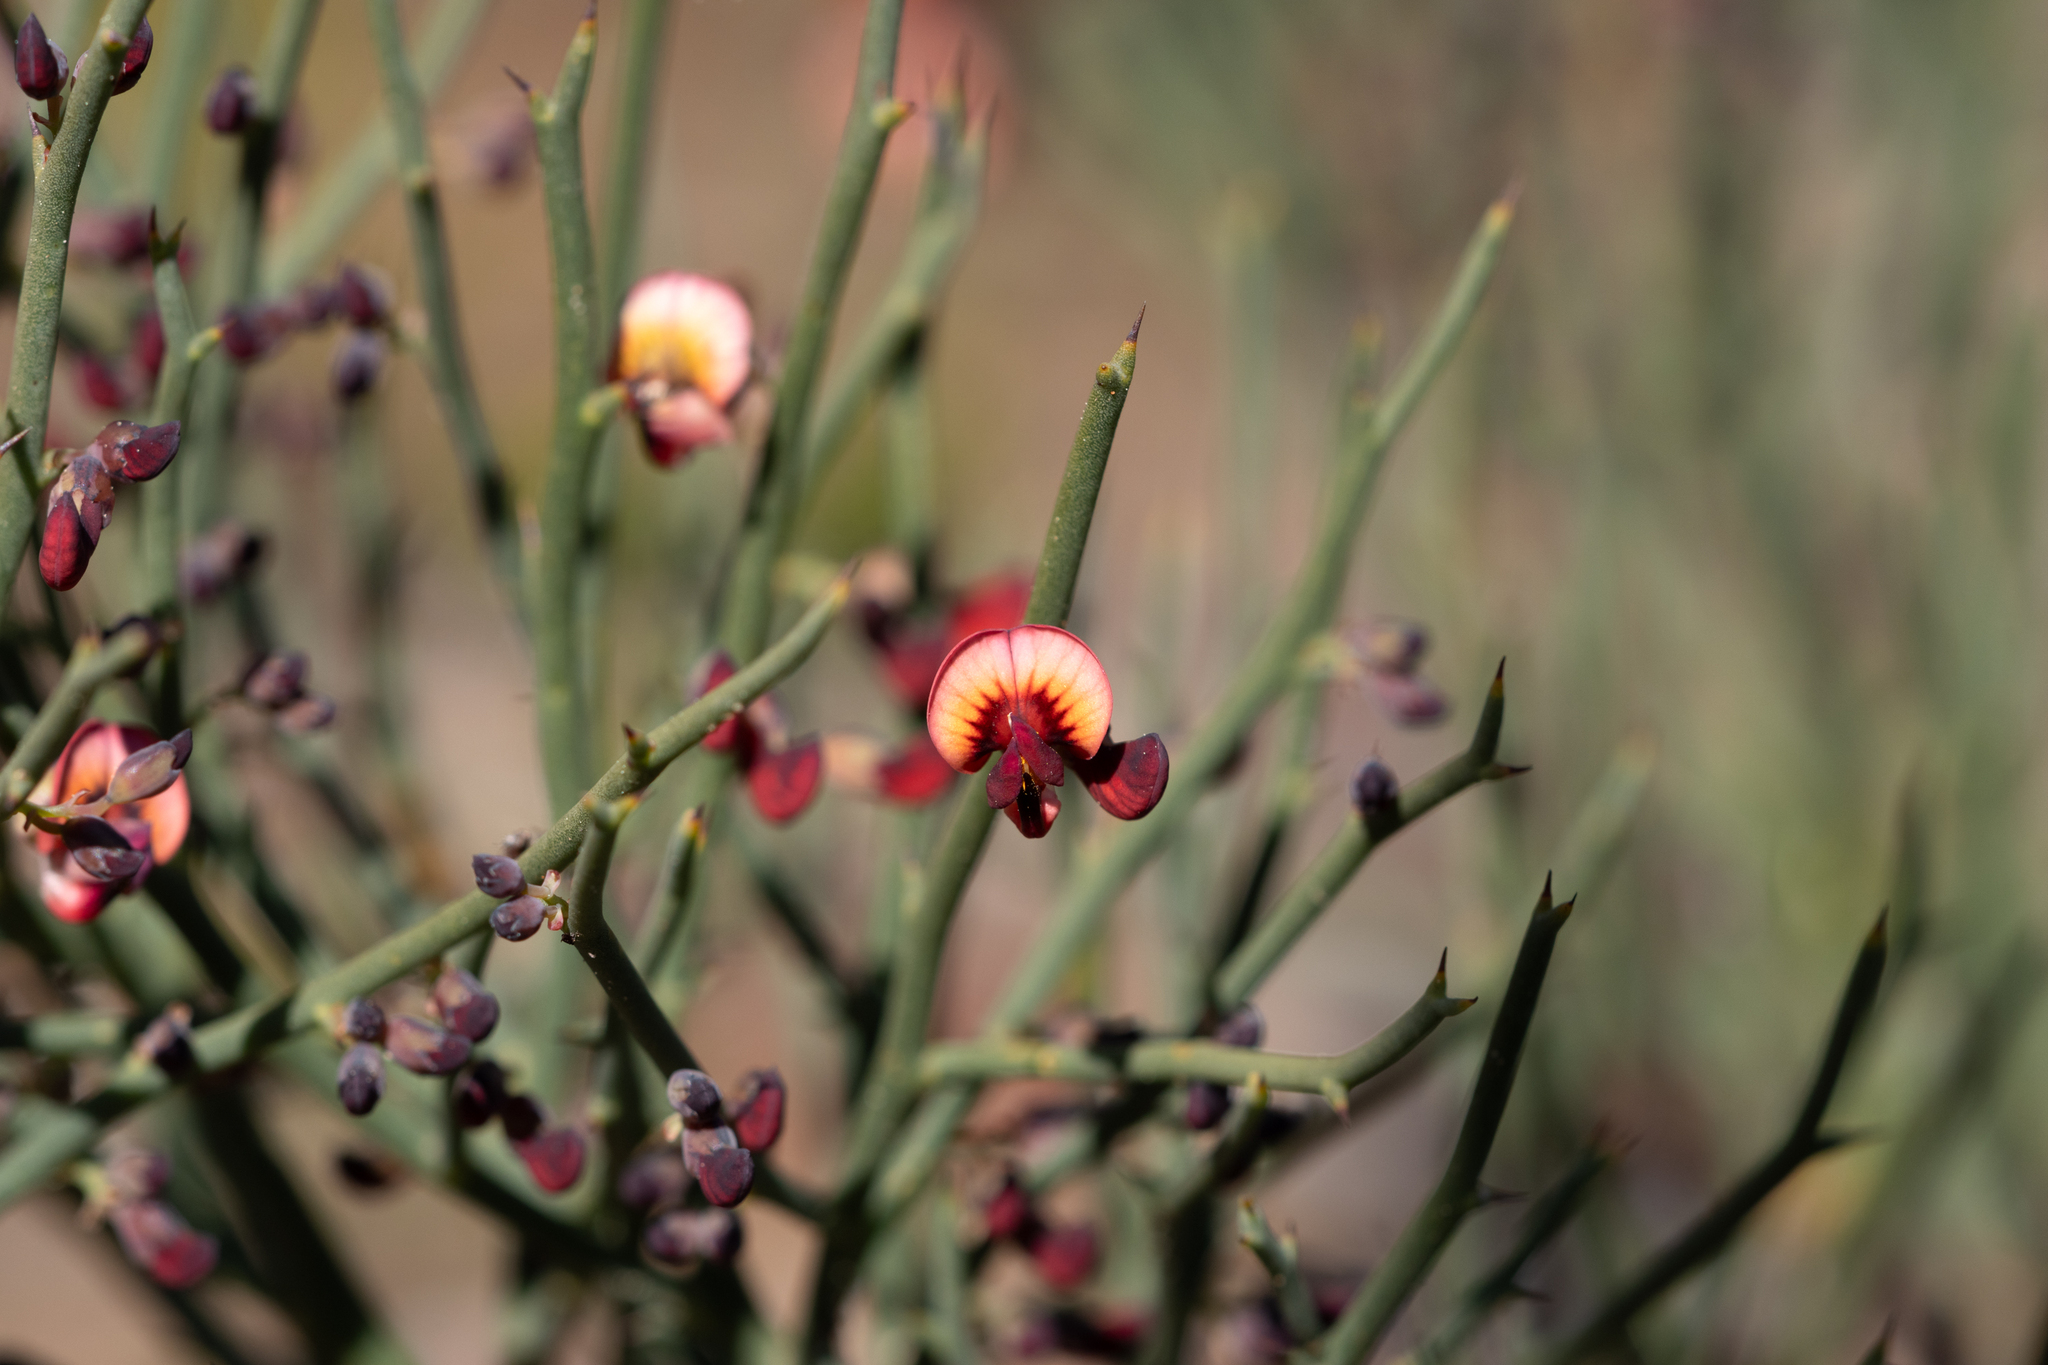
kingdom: Plantae
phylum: Tracheophyta
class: Magnoliopsida
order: Fabales
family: Fabaceae
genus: Daviesia
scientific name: Daviesia brevifolia
